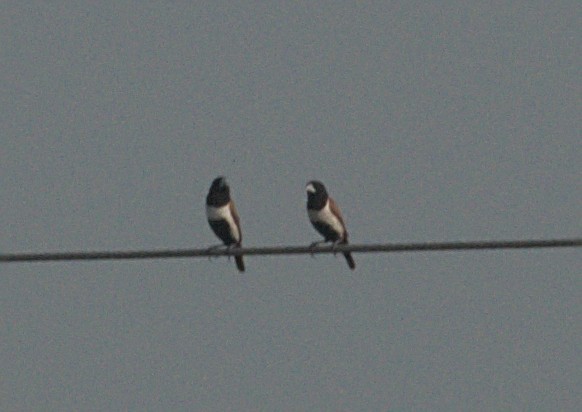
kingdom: Animalia
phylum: Chordata
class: Aves
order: Passeriformes
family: Estrildidae
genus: Lonchura
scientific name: Lonchura malacca
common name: Tricolored munia
